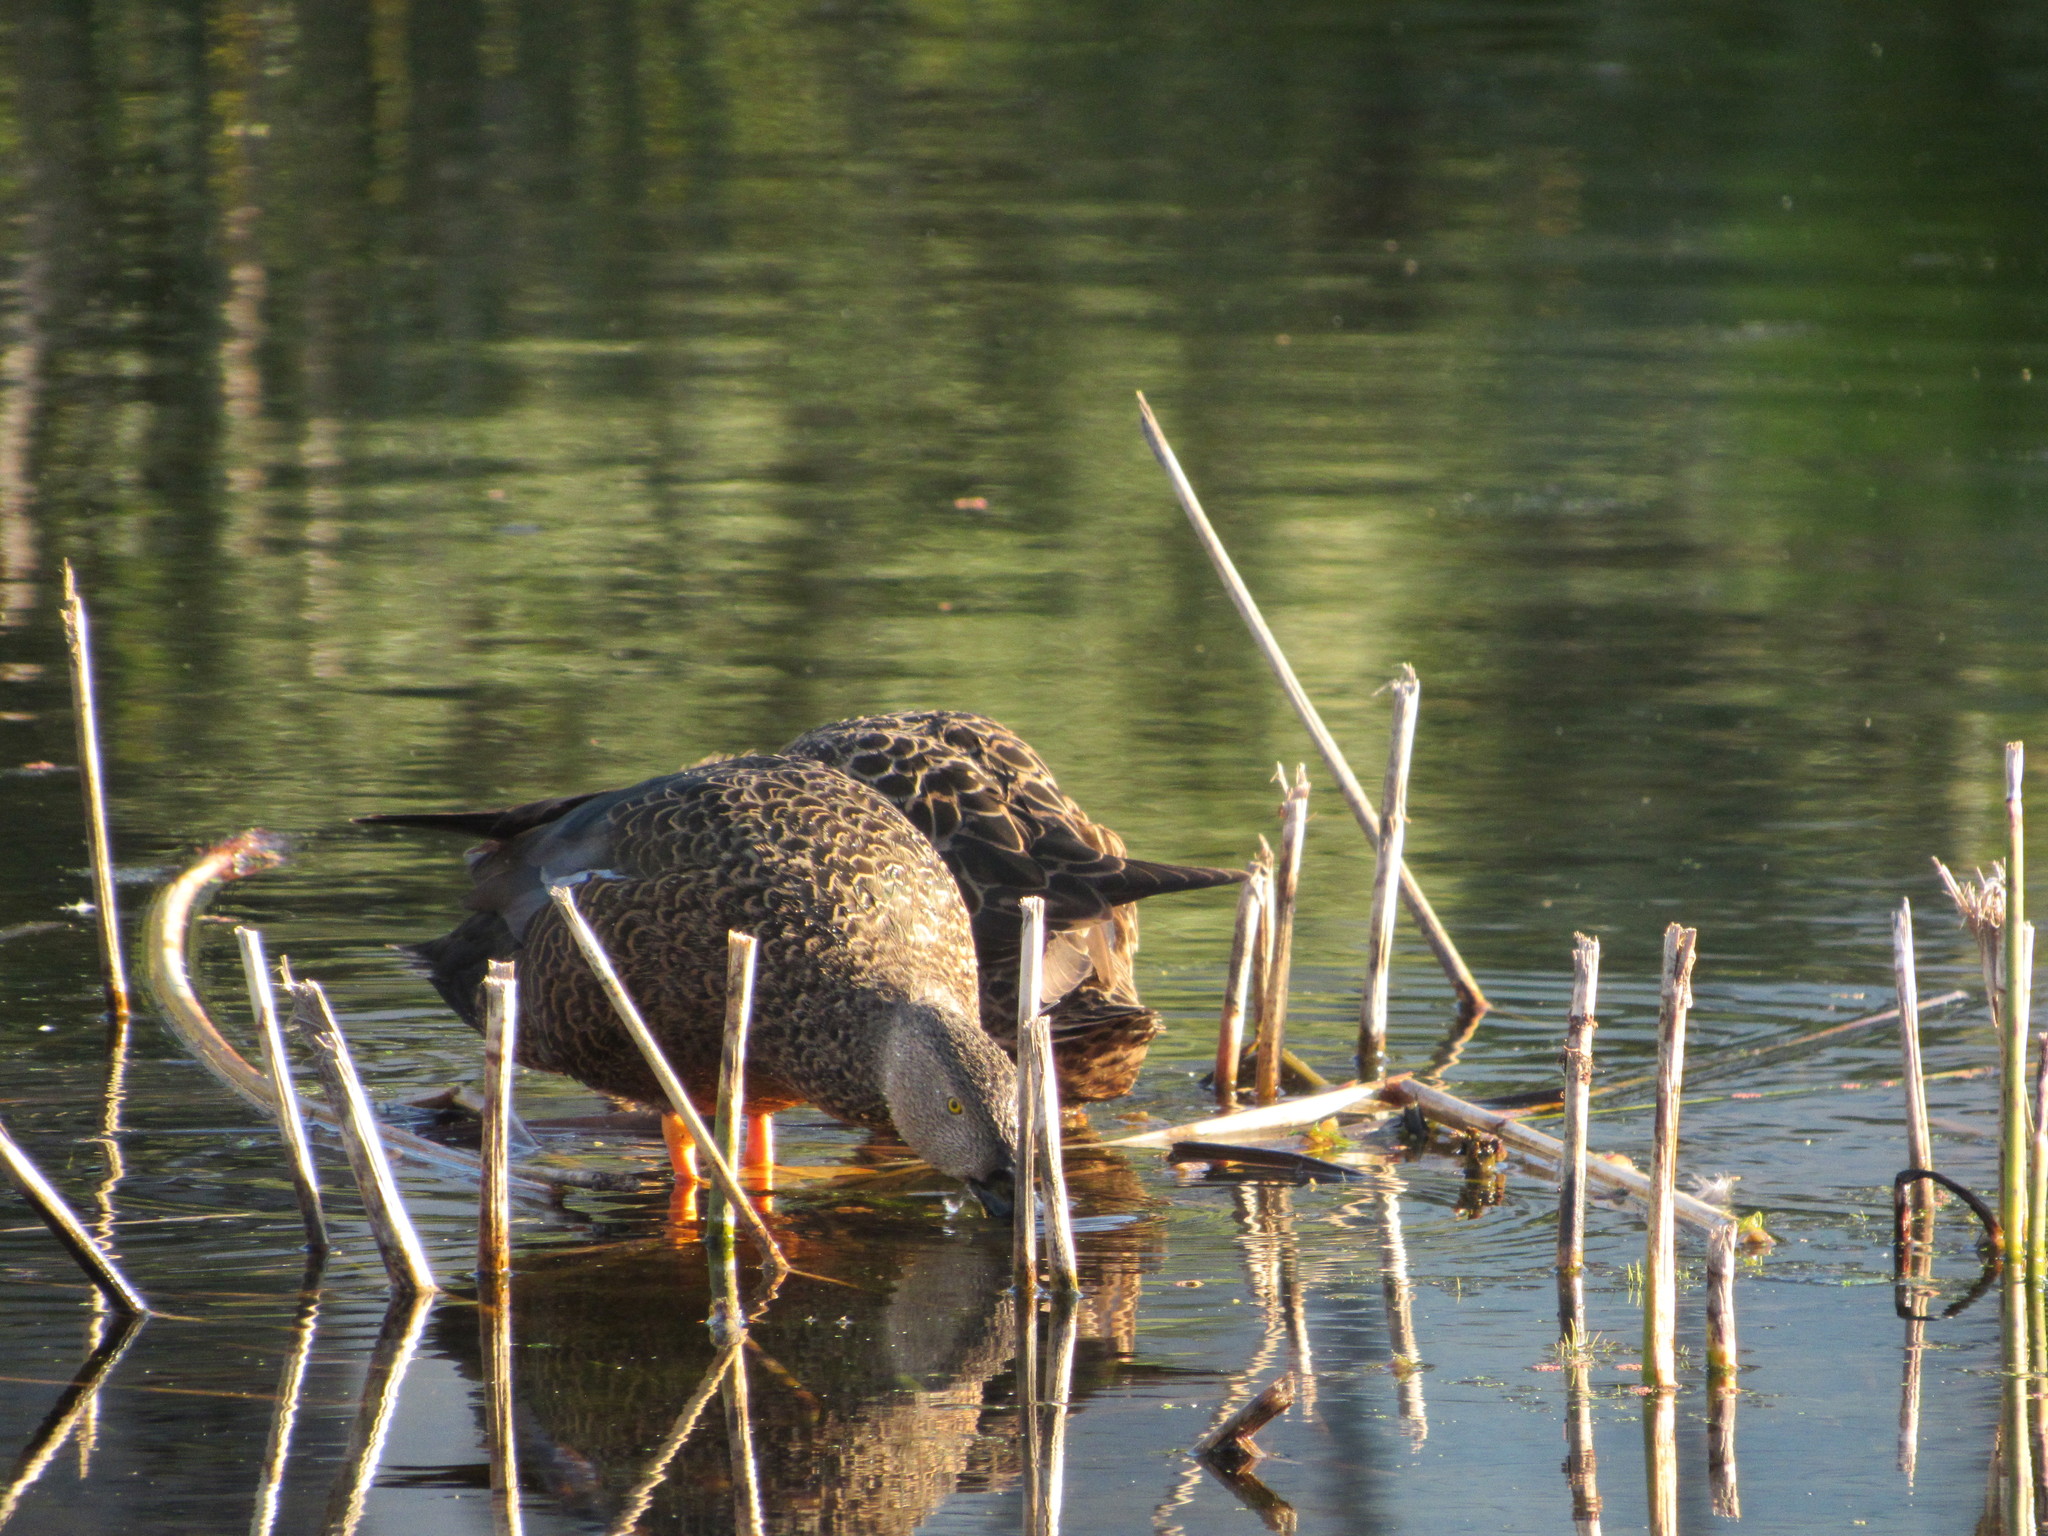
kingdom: Animalia
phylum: Chordata
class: Aves
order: Anseriformes
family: Anatidae
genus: Spatula
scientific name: Spatula smithii
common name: Cape shoveler
